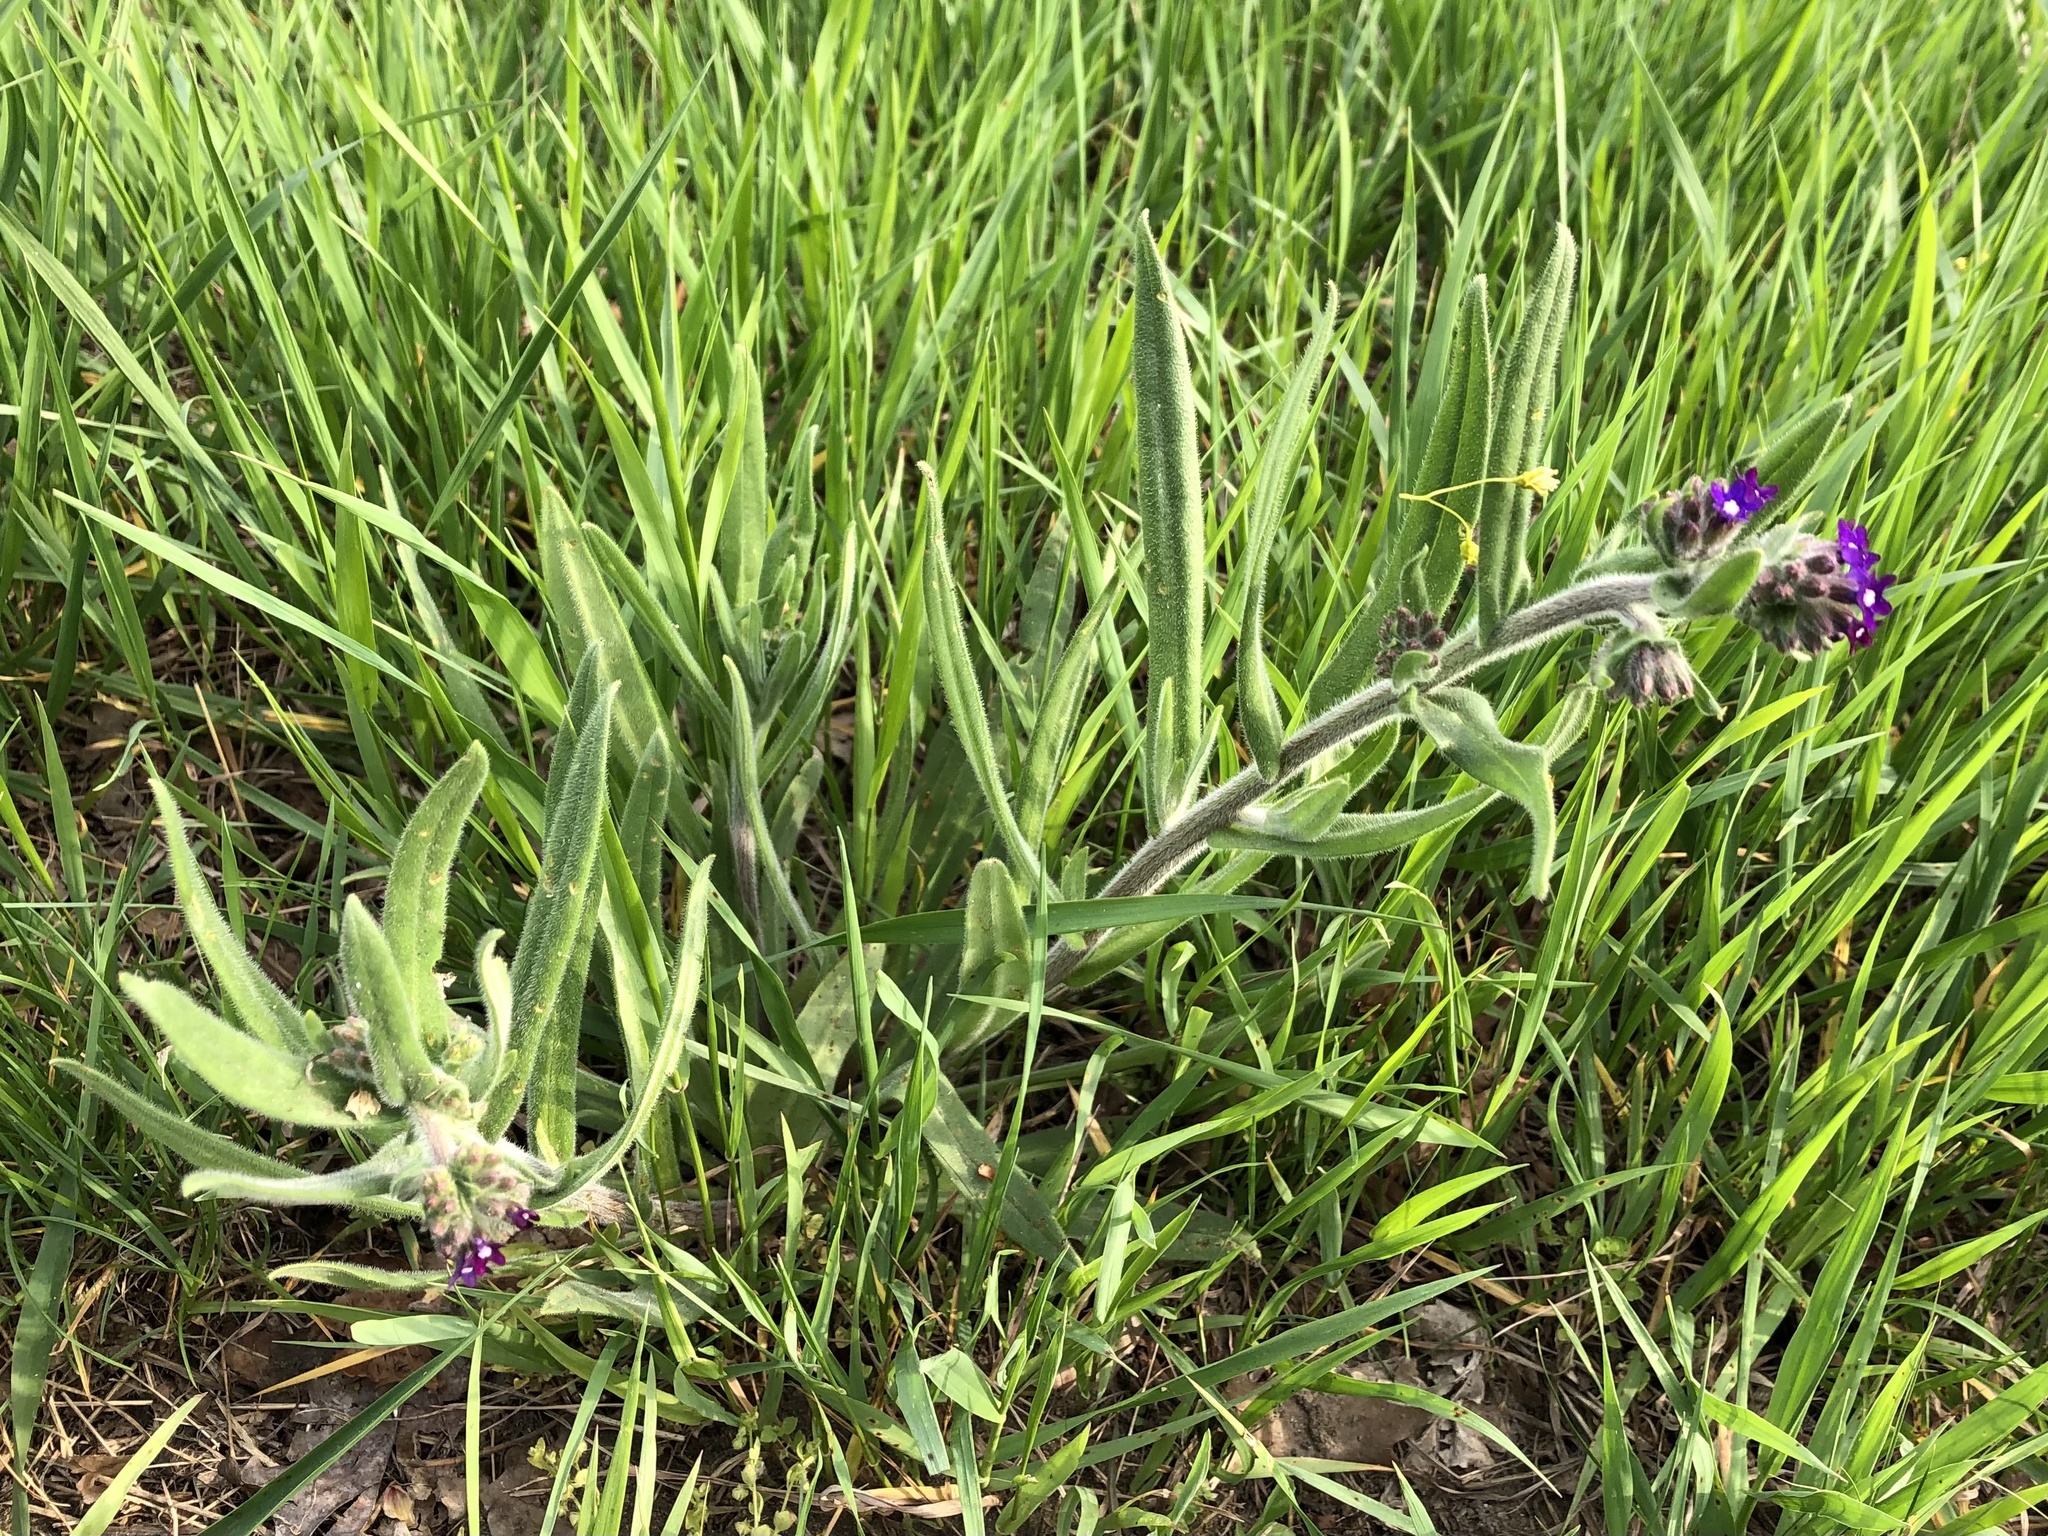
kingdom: Plantae
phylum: Tracheophyta
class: Magnoliopsida
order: Boraginales
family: Boraginaceae
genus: Anchusa
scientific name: Anchusa officinalis
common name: Alkanet
